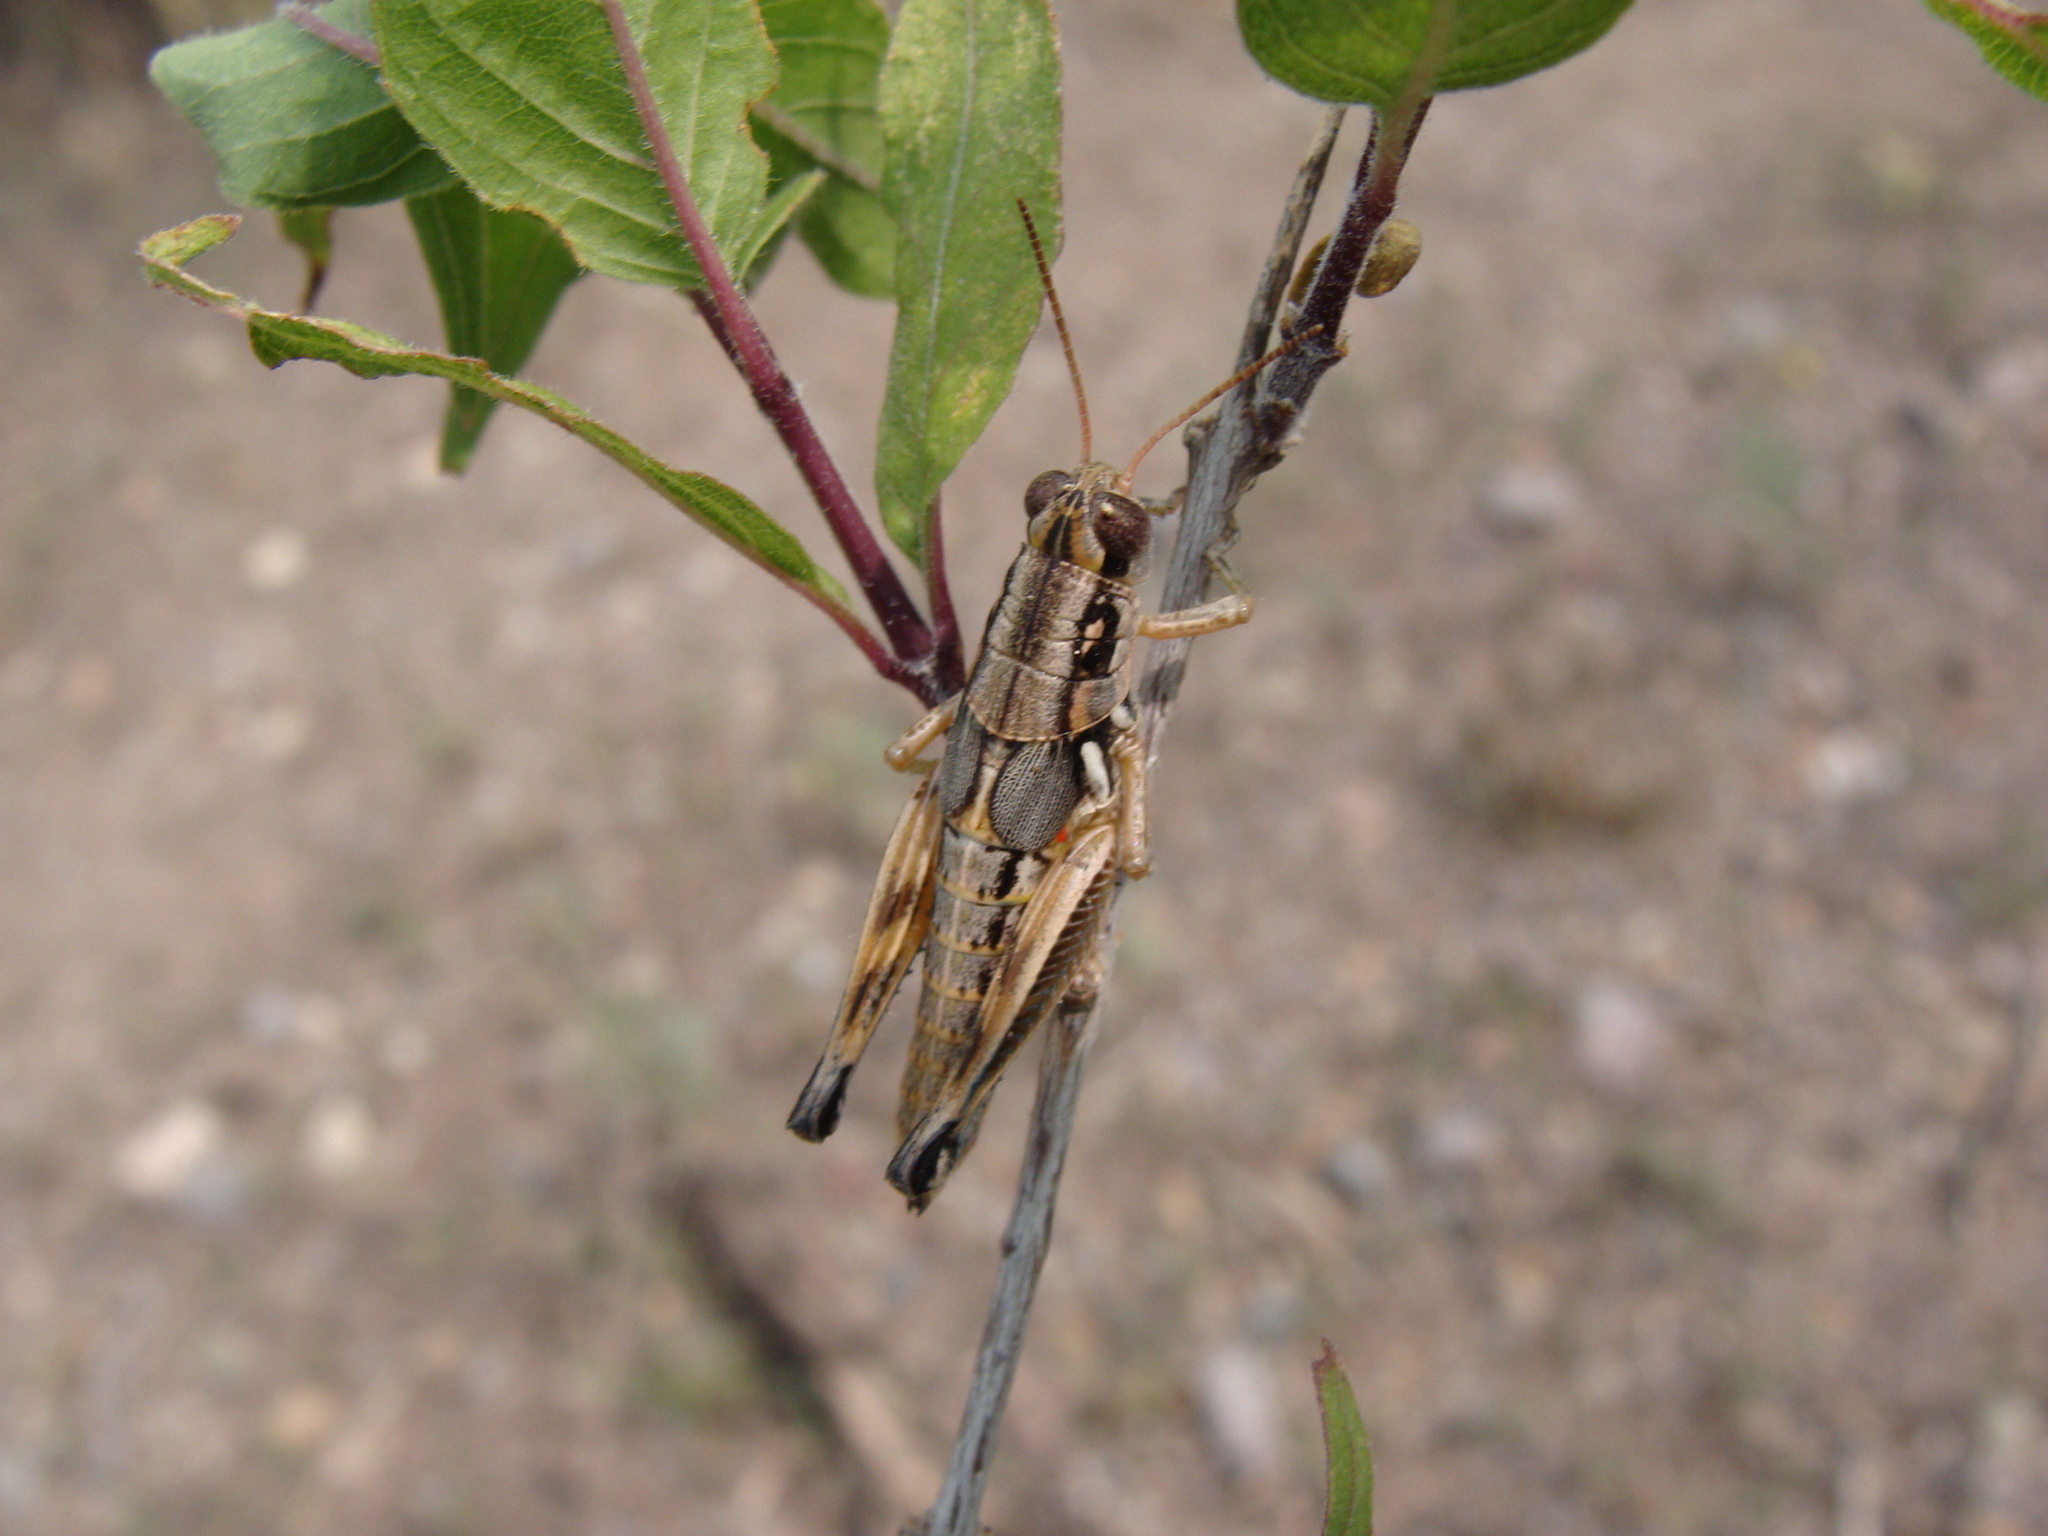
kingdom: Animalia
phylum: Arthropoda
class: Insecta
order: Orthoptera
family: Acrididae
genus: Melanoplus
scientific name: Melanoplus aridus
